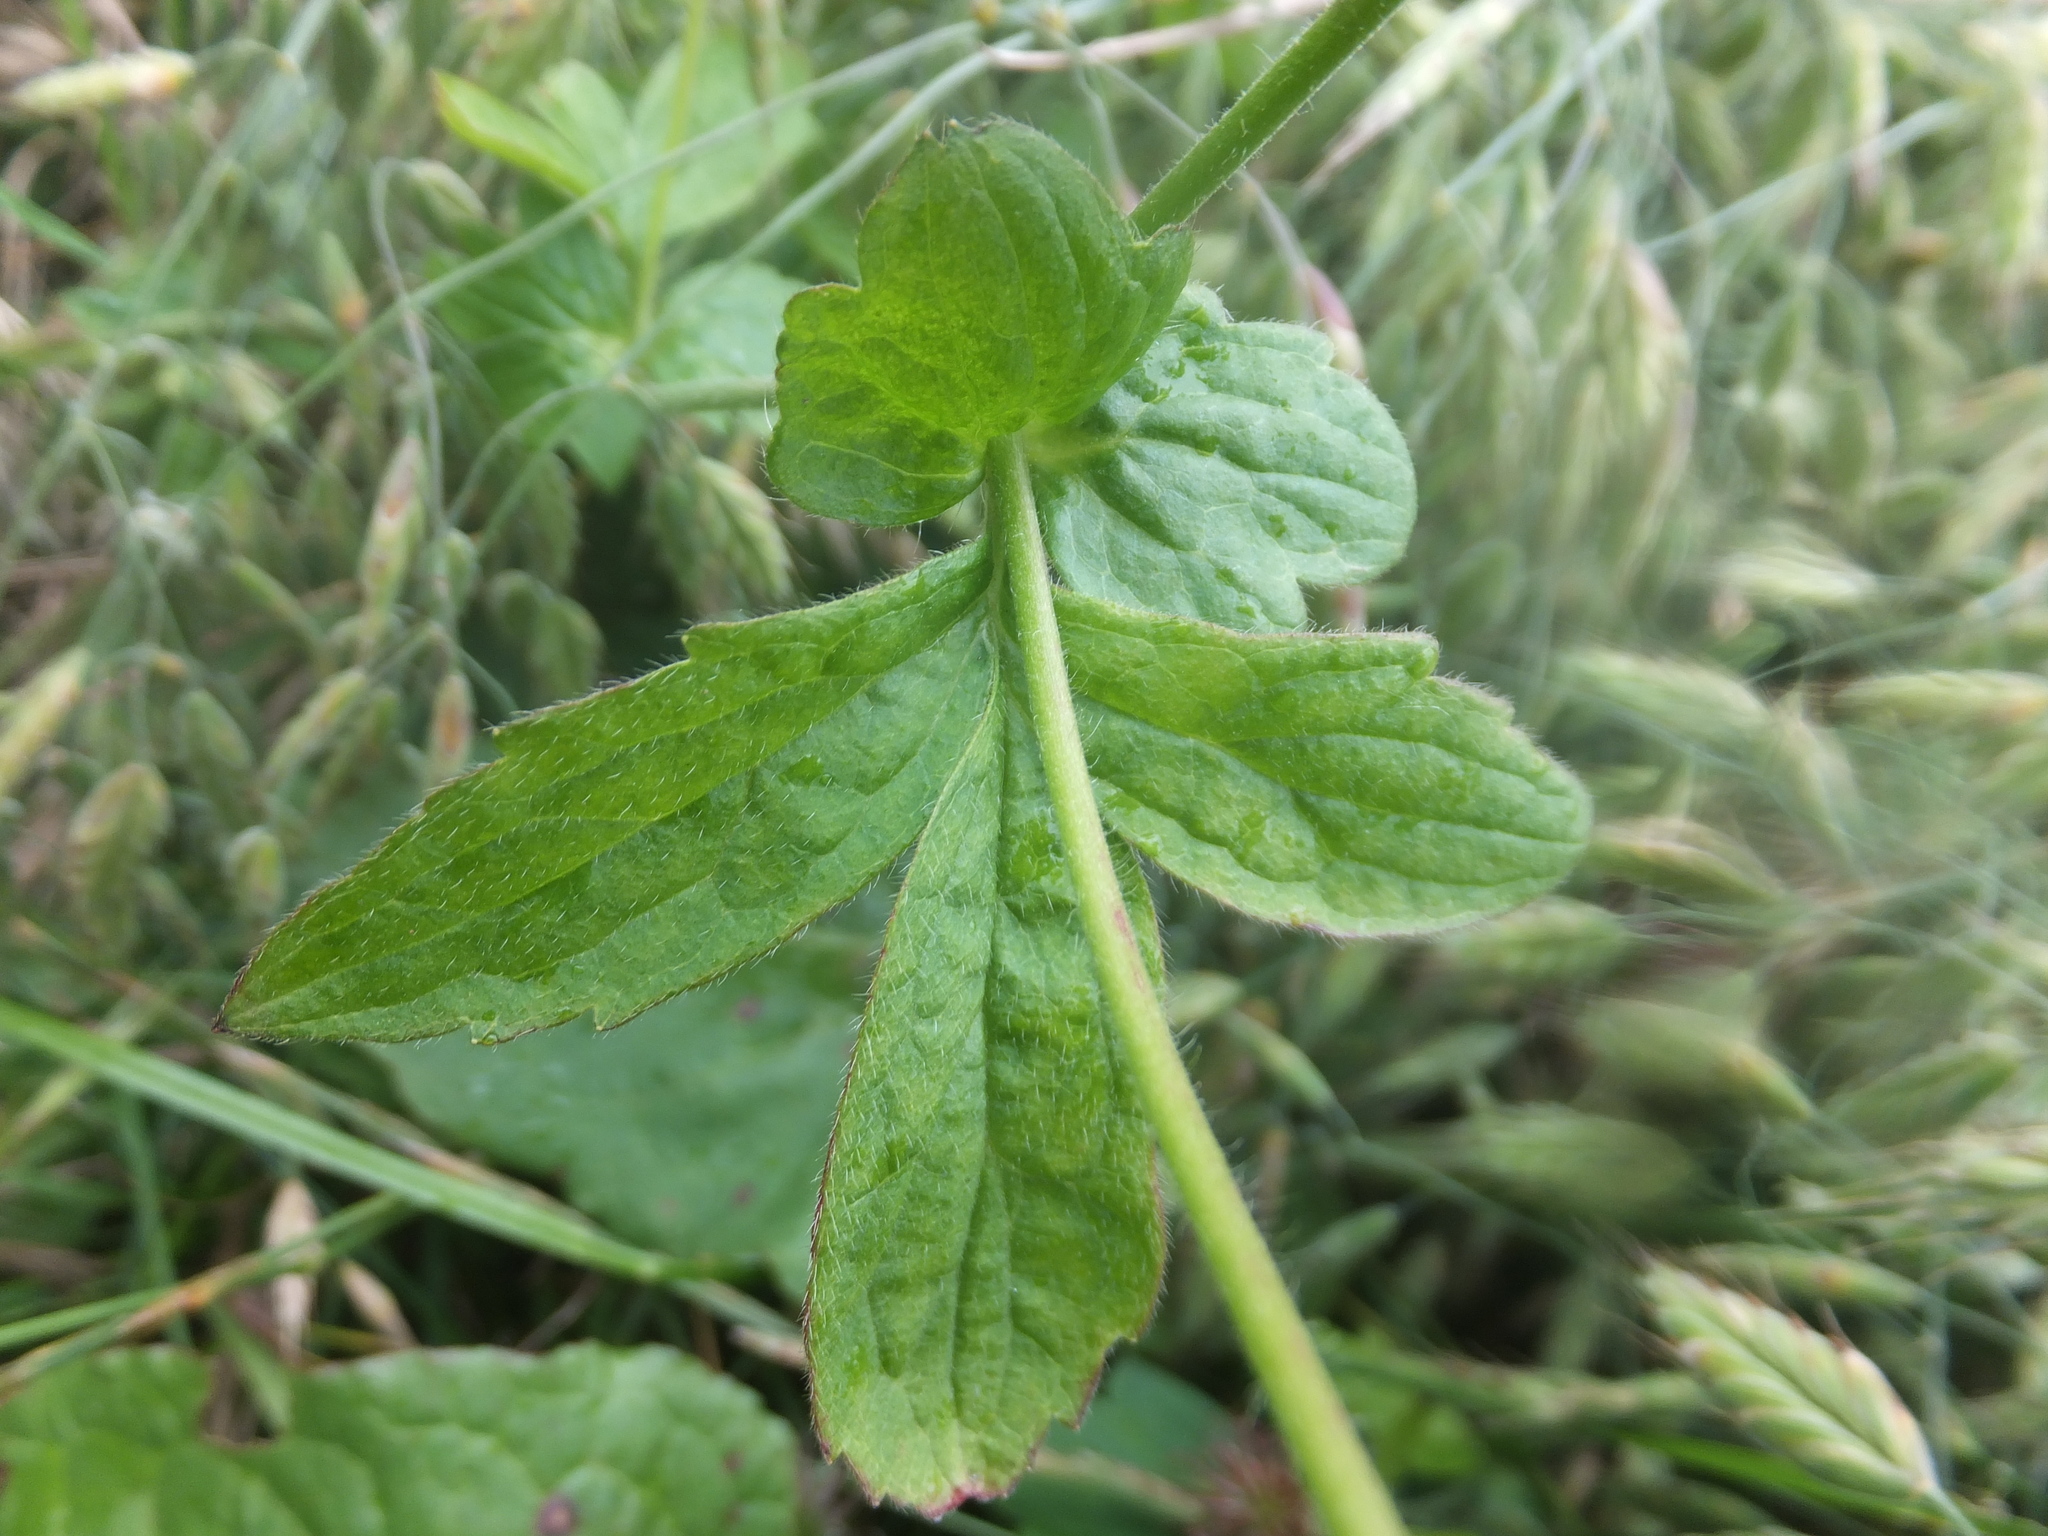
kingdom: Plantae
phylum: Tracheophyta
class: Magnoliopsida
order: Rosales
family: Rosaceae
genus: Geum
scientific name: Geum urbanum
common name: Wood avens
